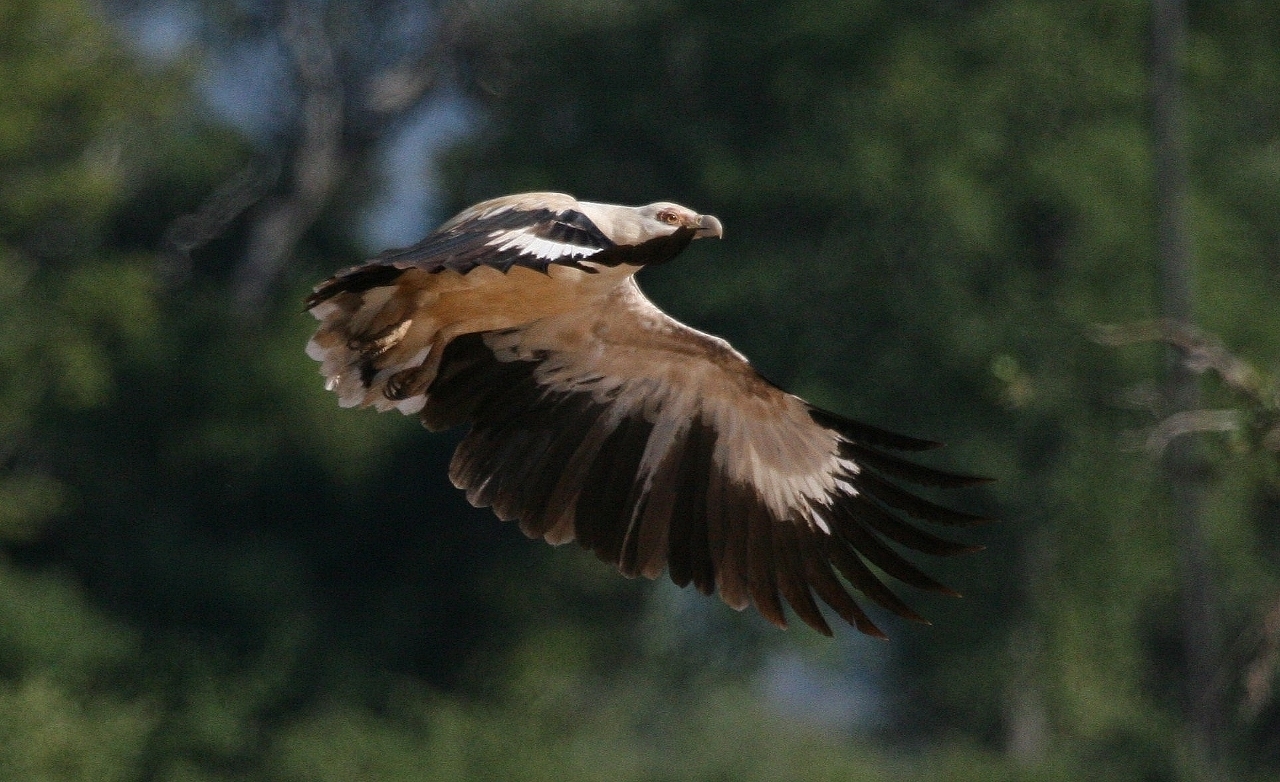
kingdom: Animalia
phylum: Chordata
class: Aves
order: Accipitriformes
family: Accipitridae
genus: Gypohierax
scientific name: Gypohierax angolensis
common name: Palm-nut vulture
